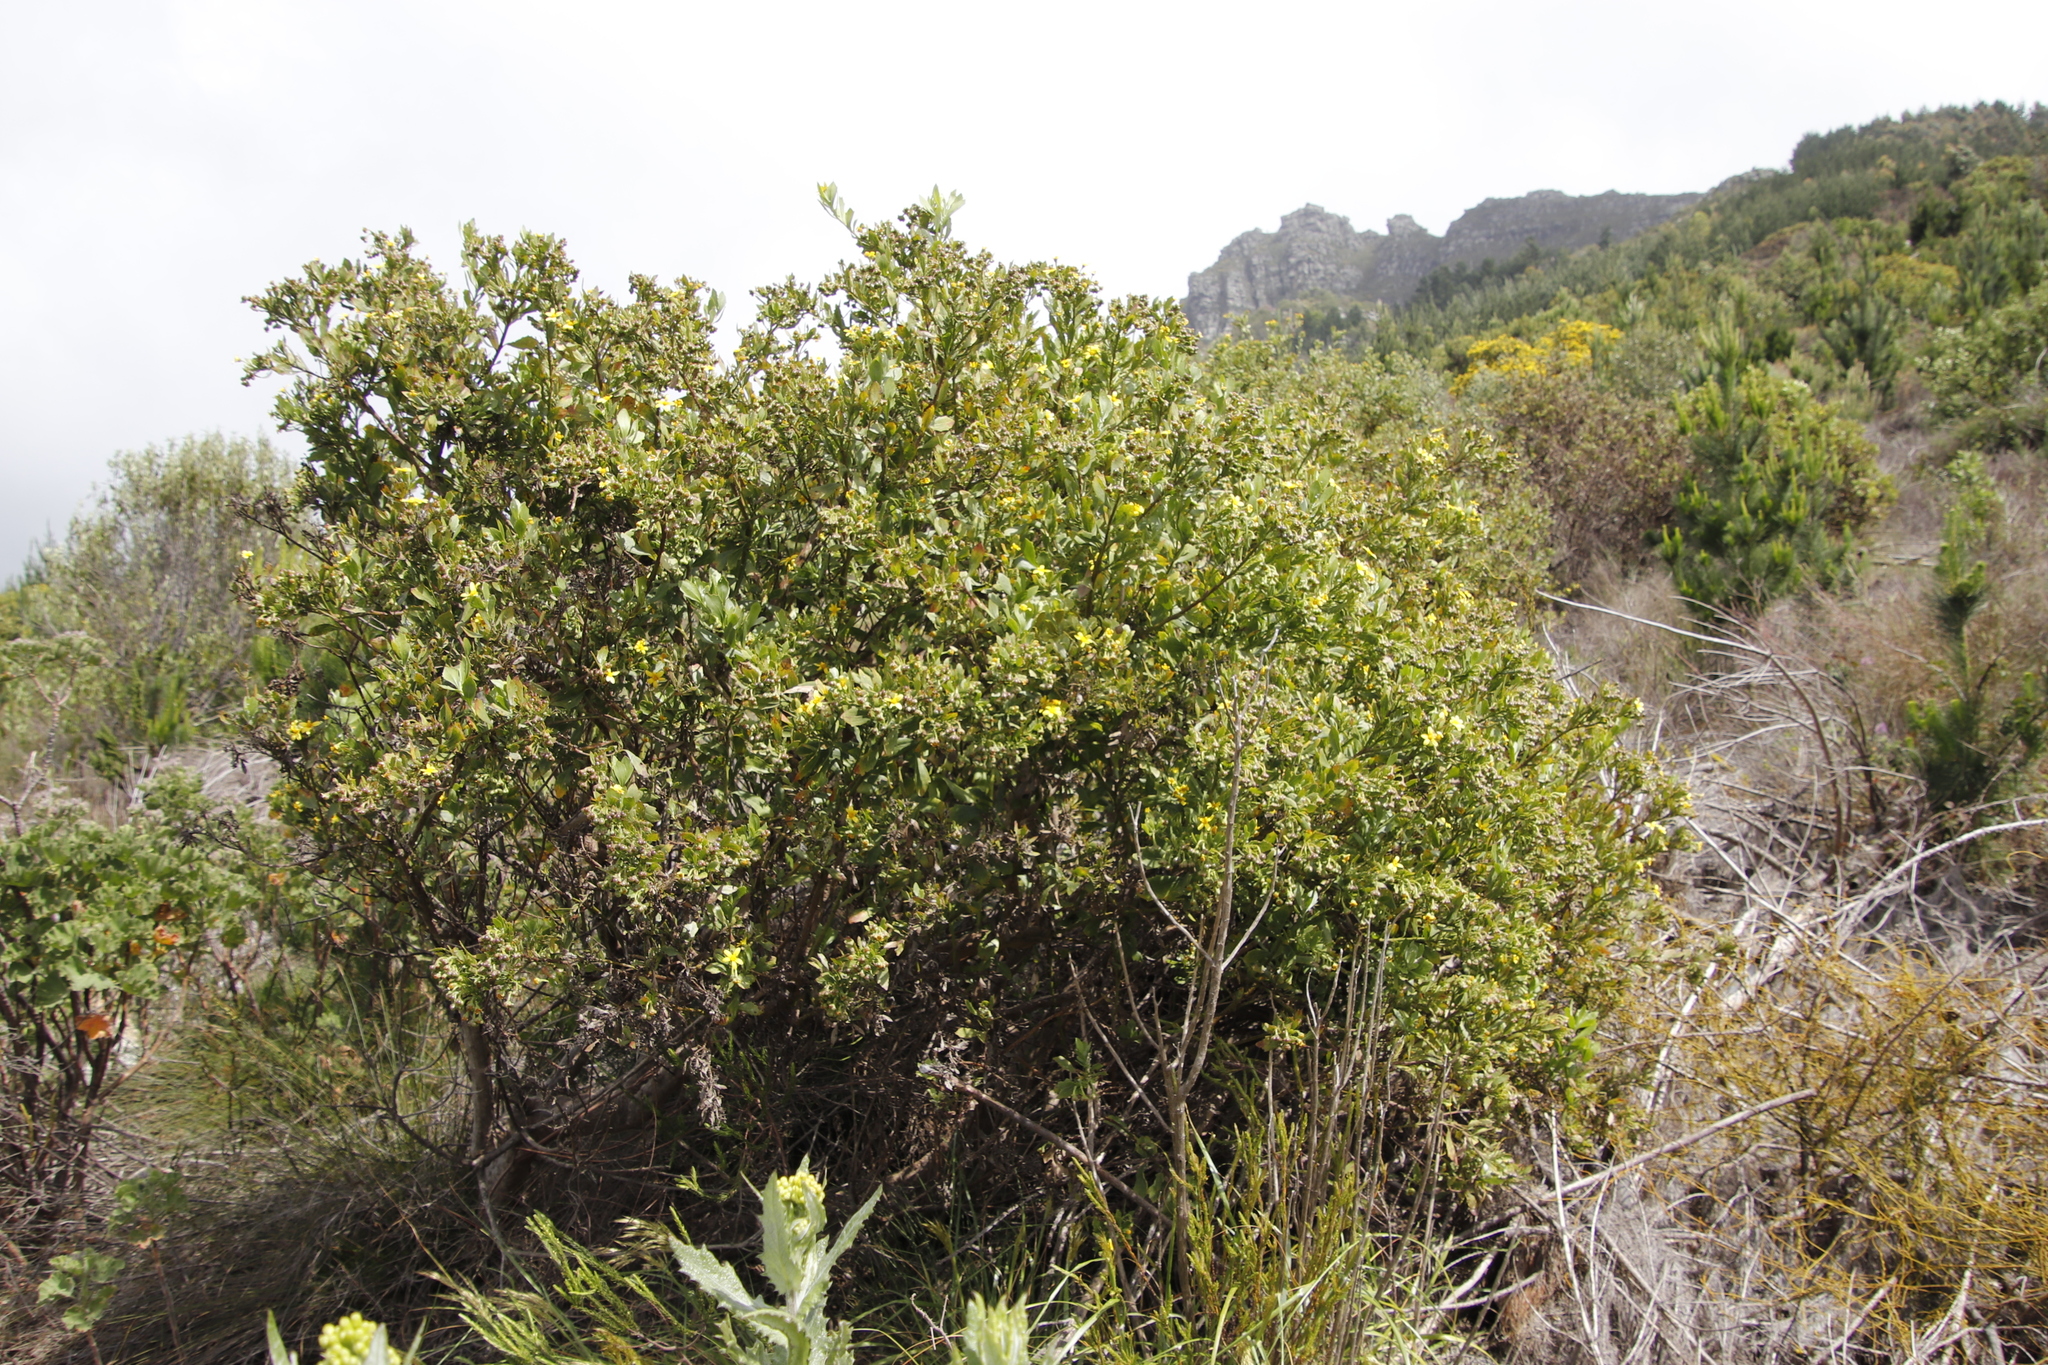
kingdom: Plantae
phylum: Tracheophyta
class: Magnoliopsida
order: Asterales
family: Asteraceae
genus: Osteospermum
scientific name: Osteospermum moniliferum
